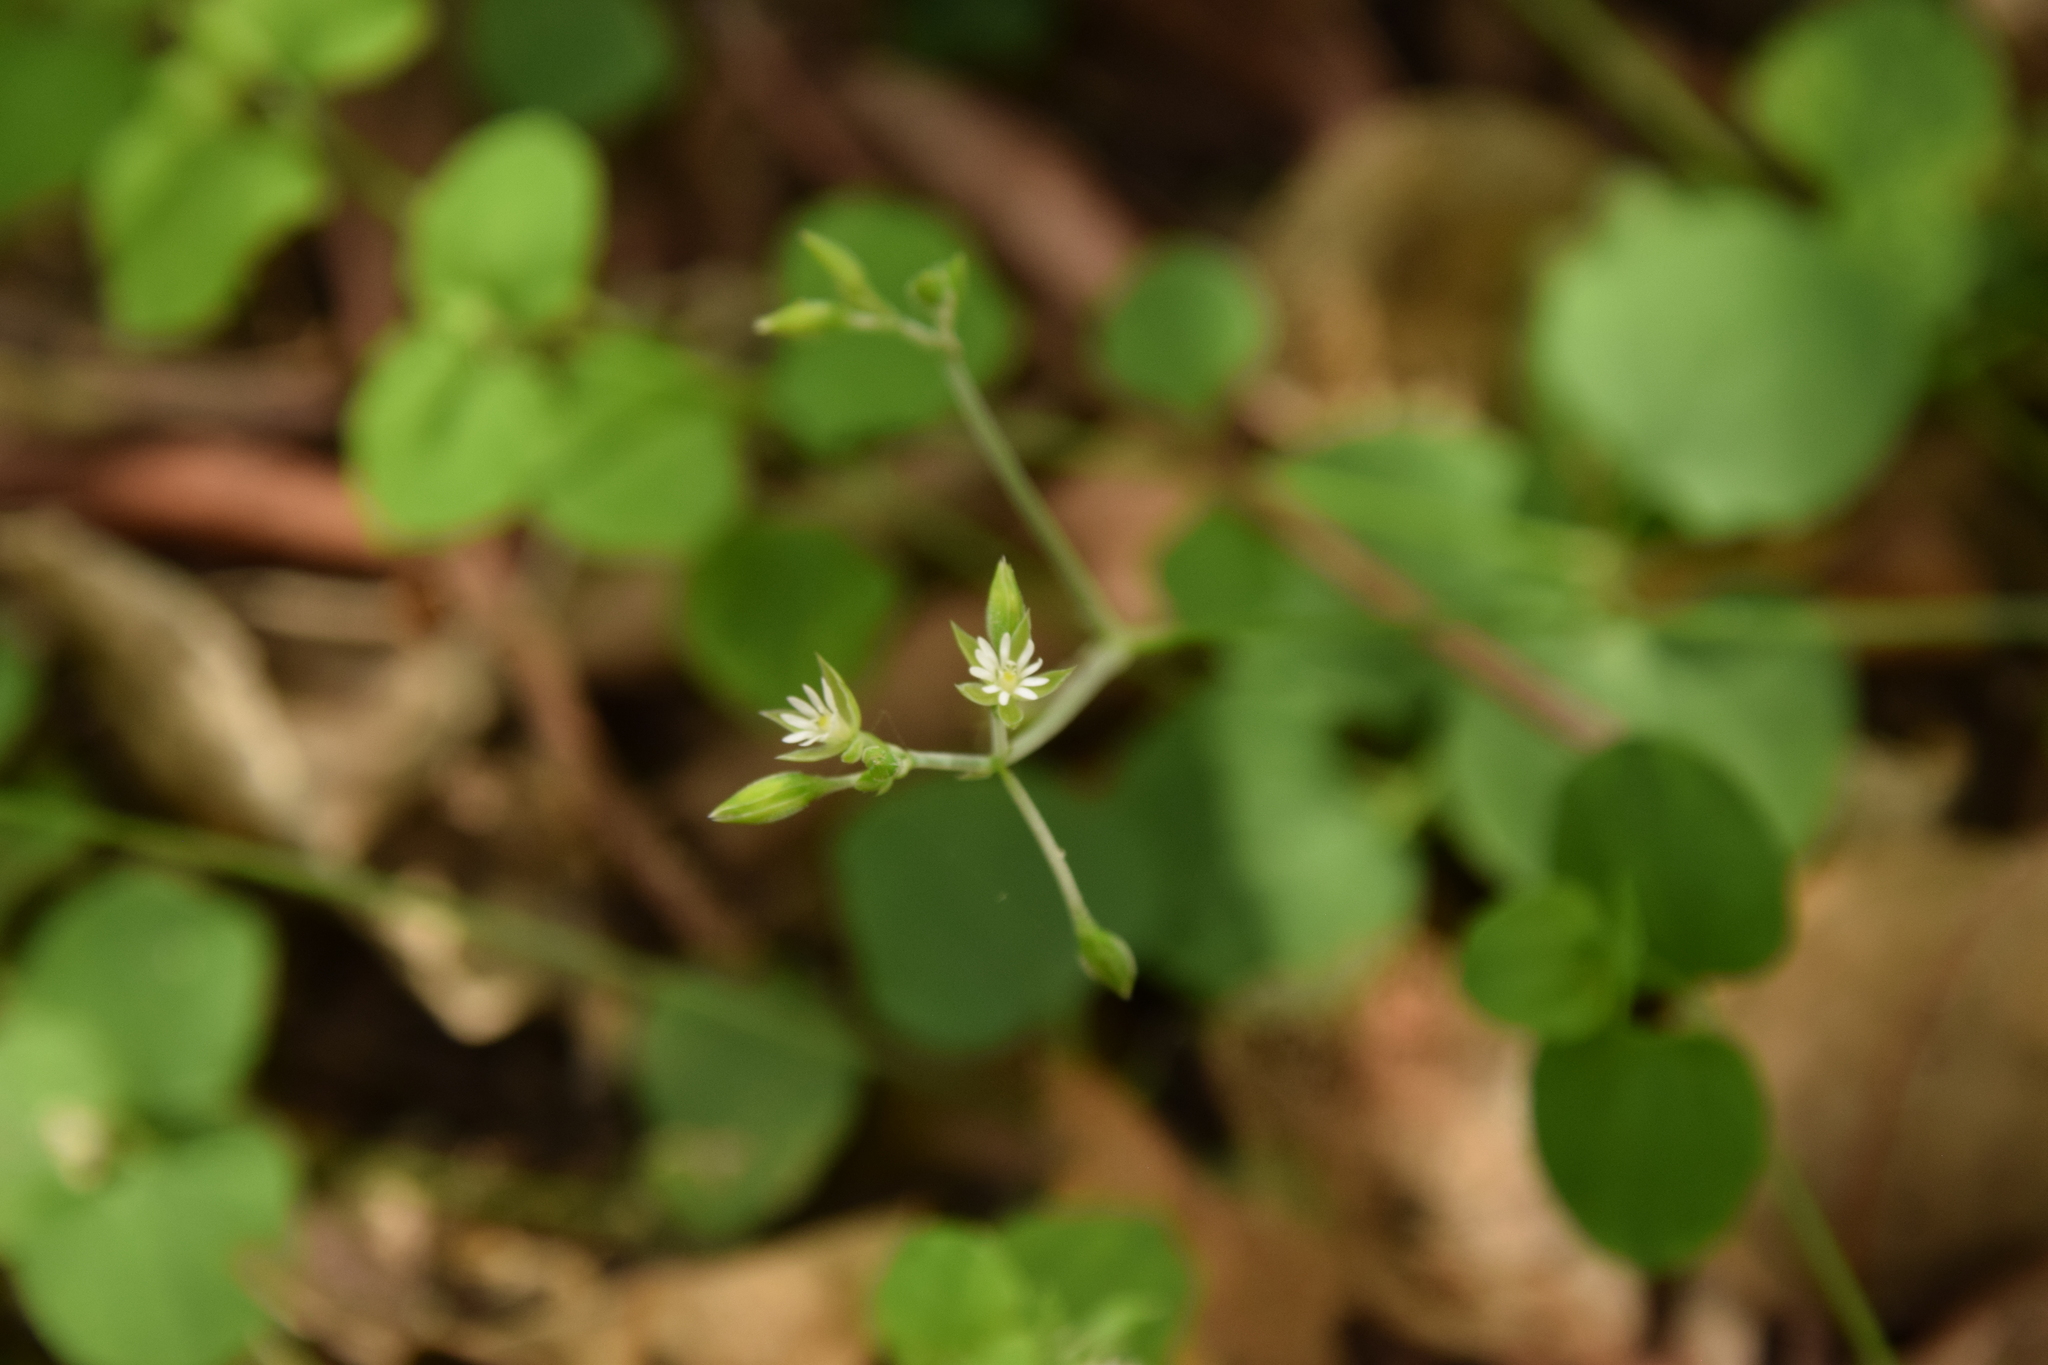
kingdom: Plantae
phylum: Tracheophyta
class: Magnoliopsida
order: Caryophyllales
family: Caryophyllaceae
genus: Drymaria
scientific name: Drymaria cordata
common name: Whitesnow
